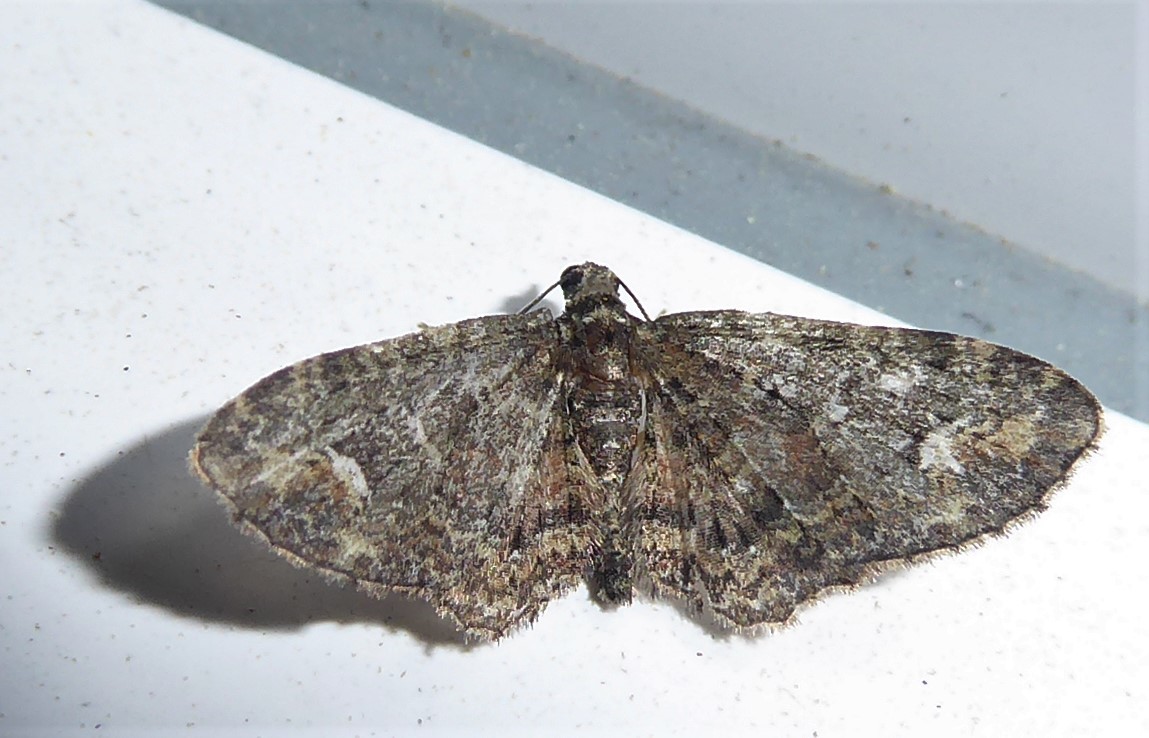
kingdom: Animalia
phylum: Arthropoda
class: Insecta
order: Lepidoptera
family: Geometridae
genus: Pasiphilodes
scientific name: Pasiphilodes testulata
